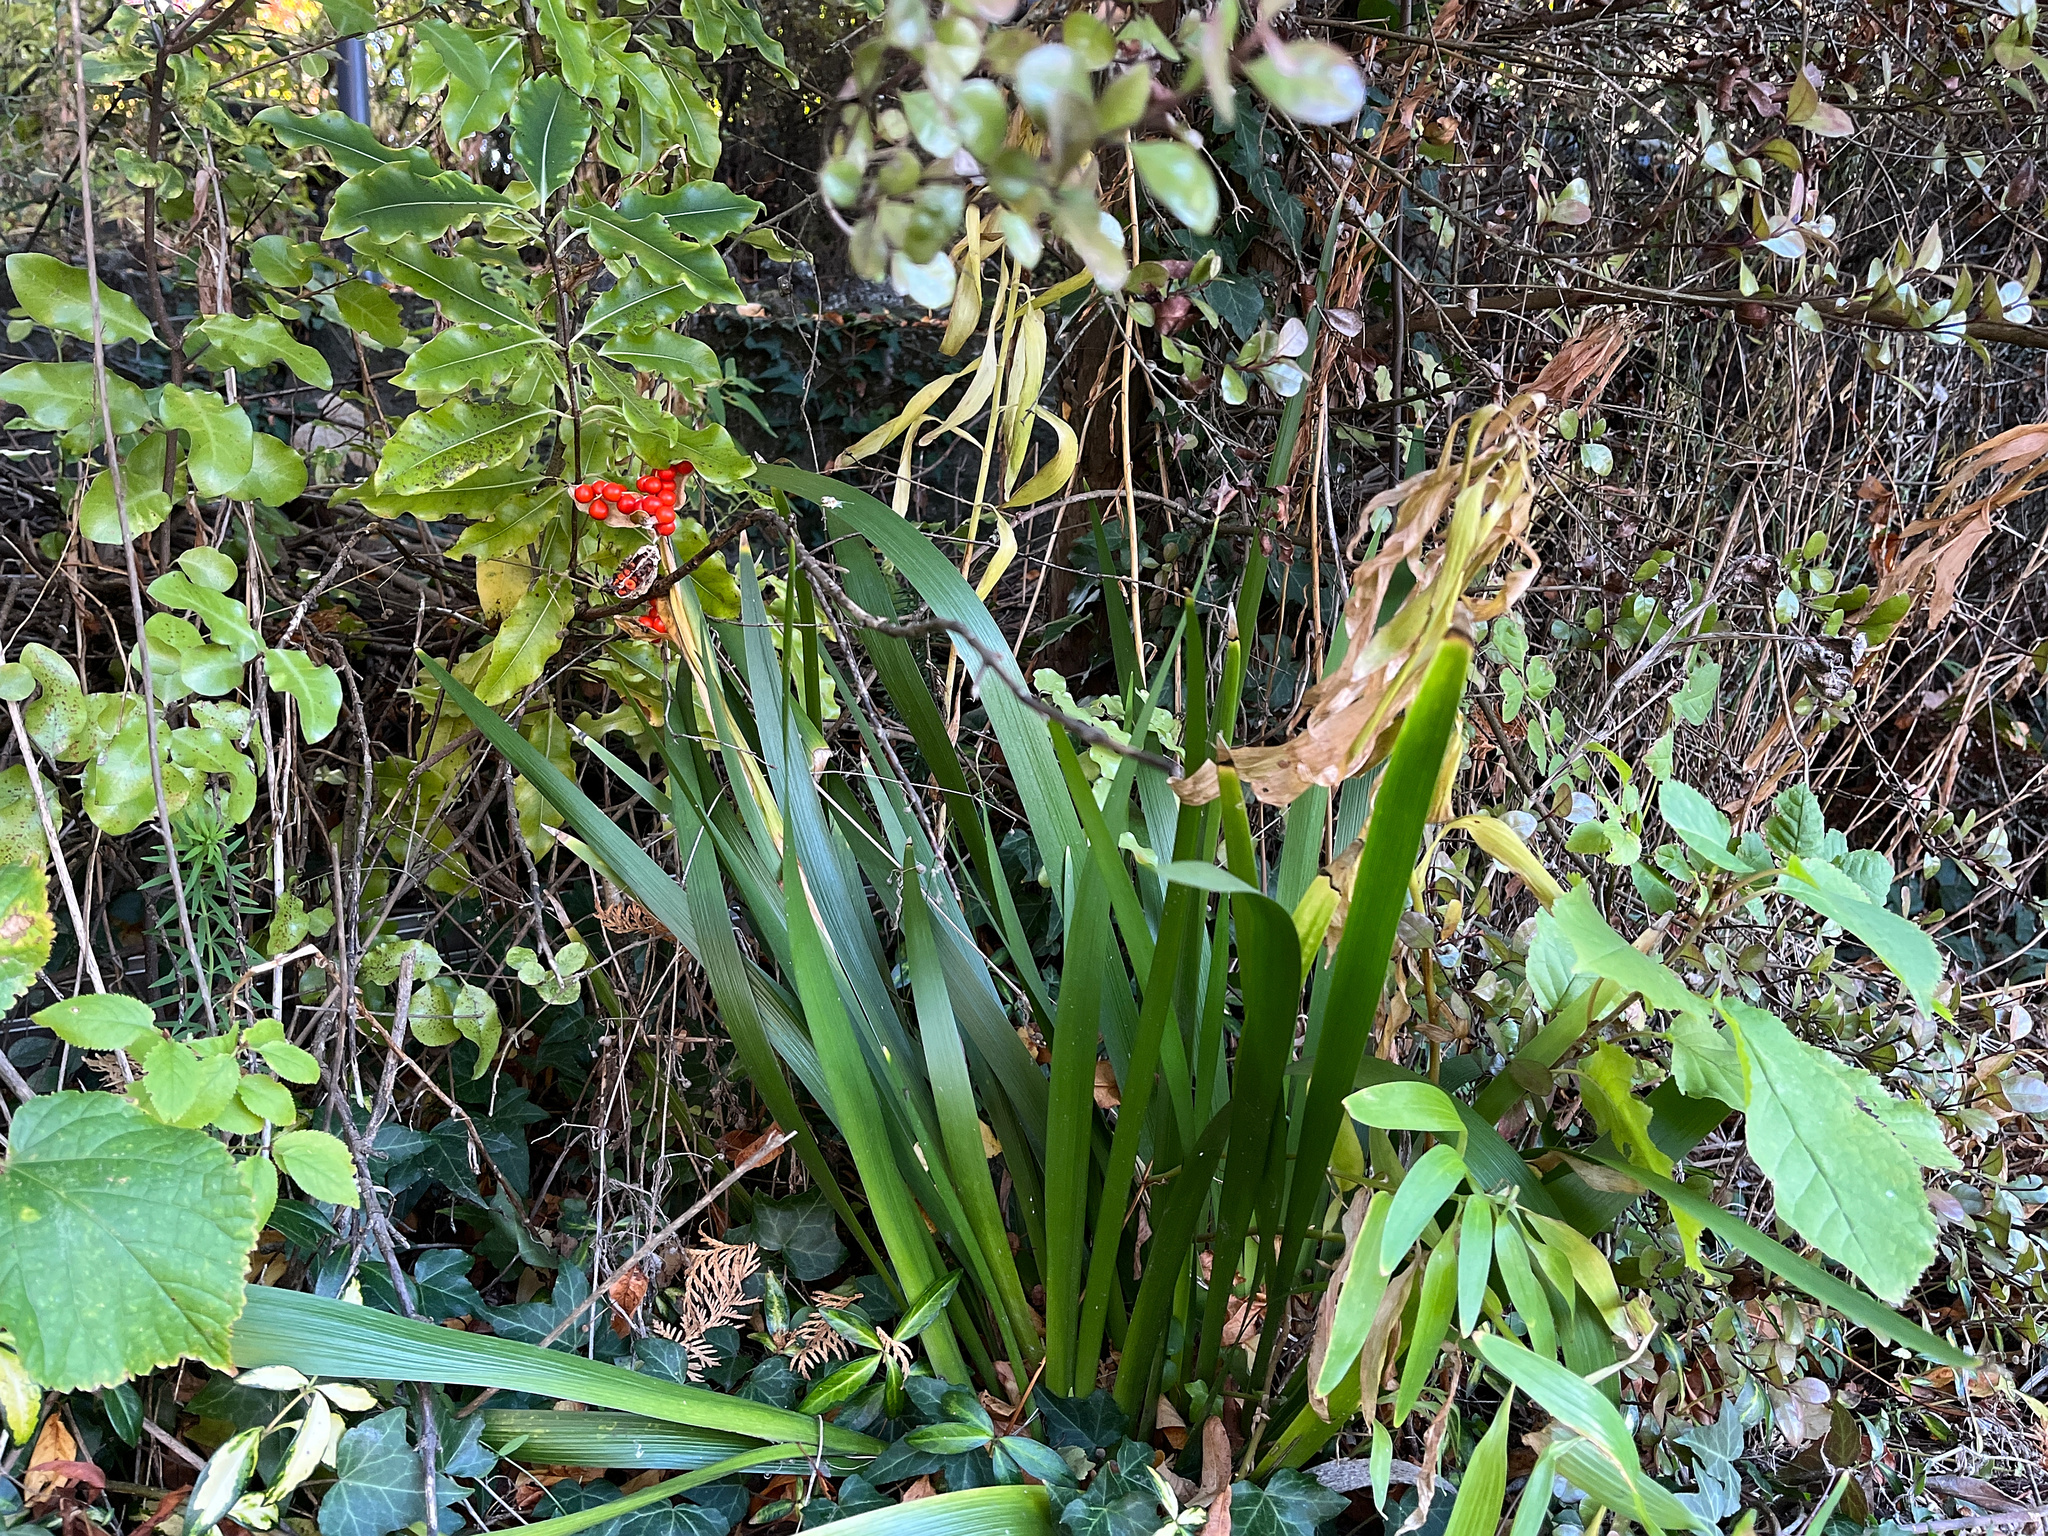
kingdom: Plantae
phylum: Tracheophyta
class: Liliopsida
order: Asparagales
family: Iridaceae
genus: Iris
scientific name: Iris foetidissima
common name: Stinking iris
